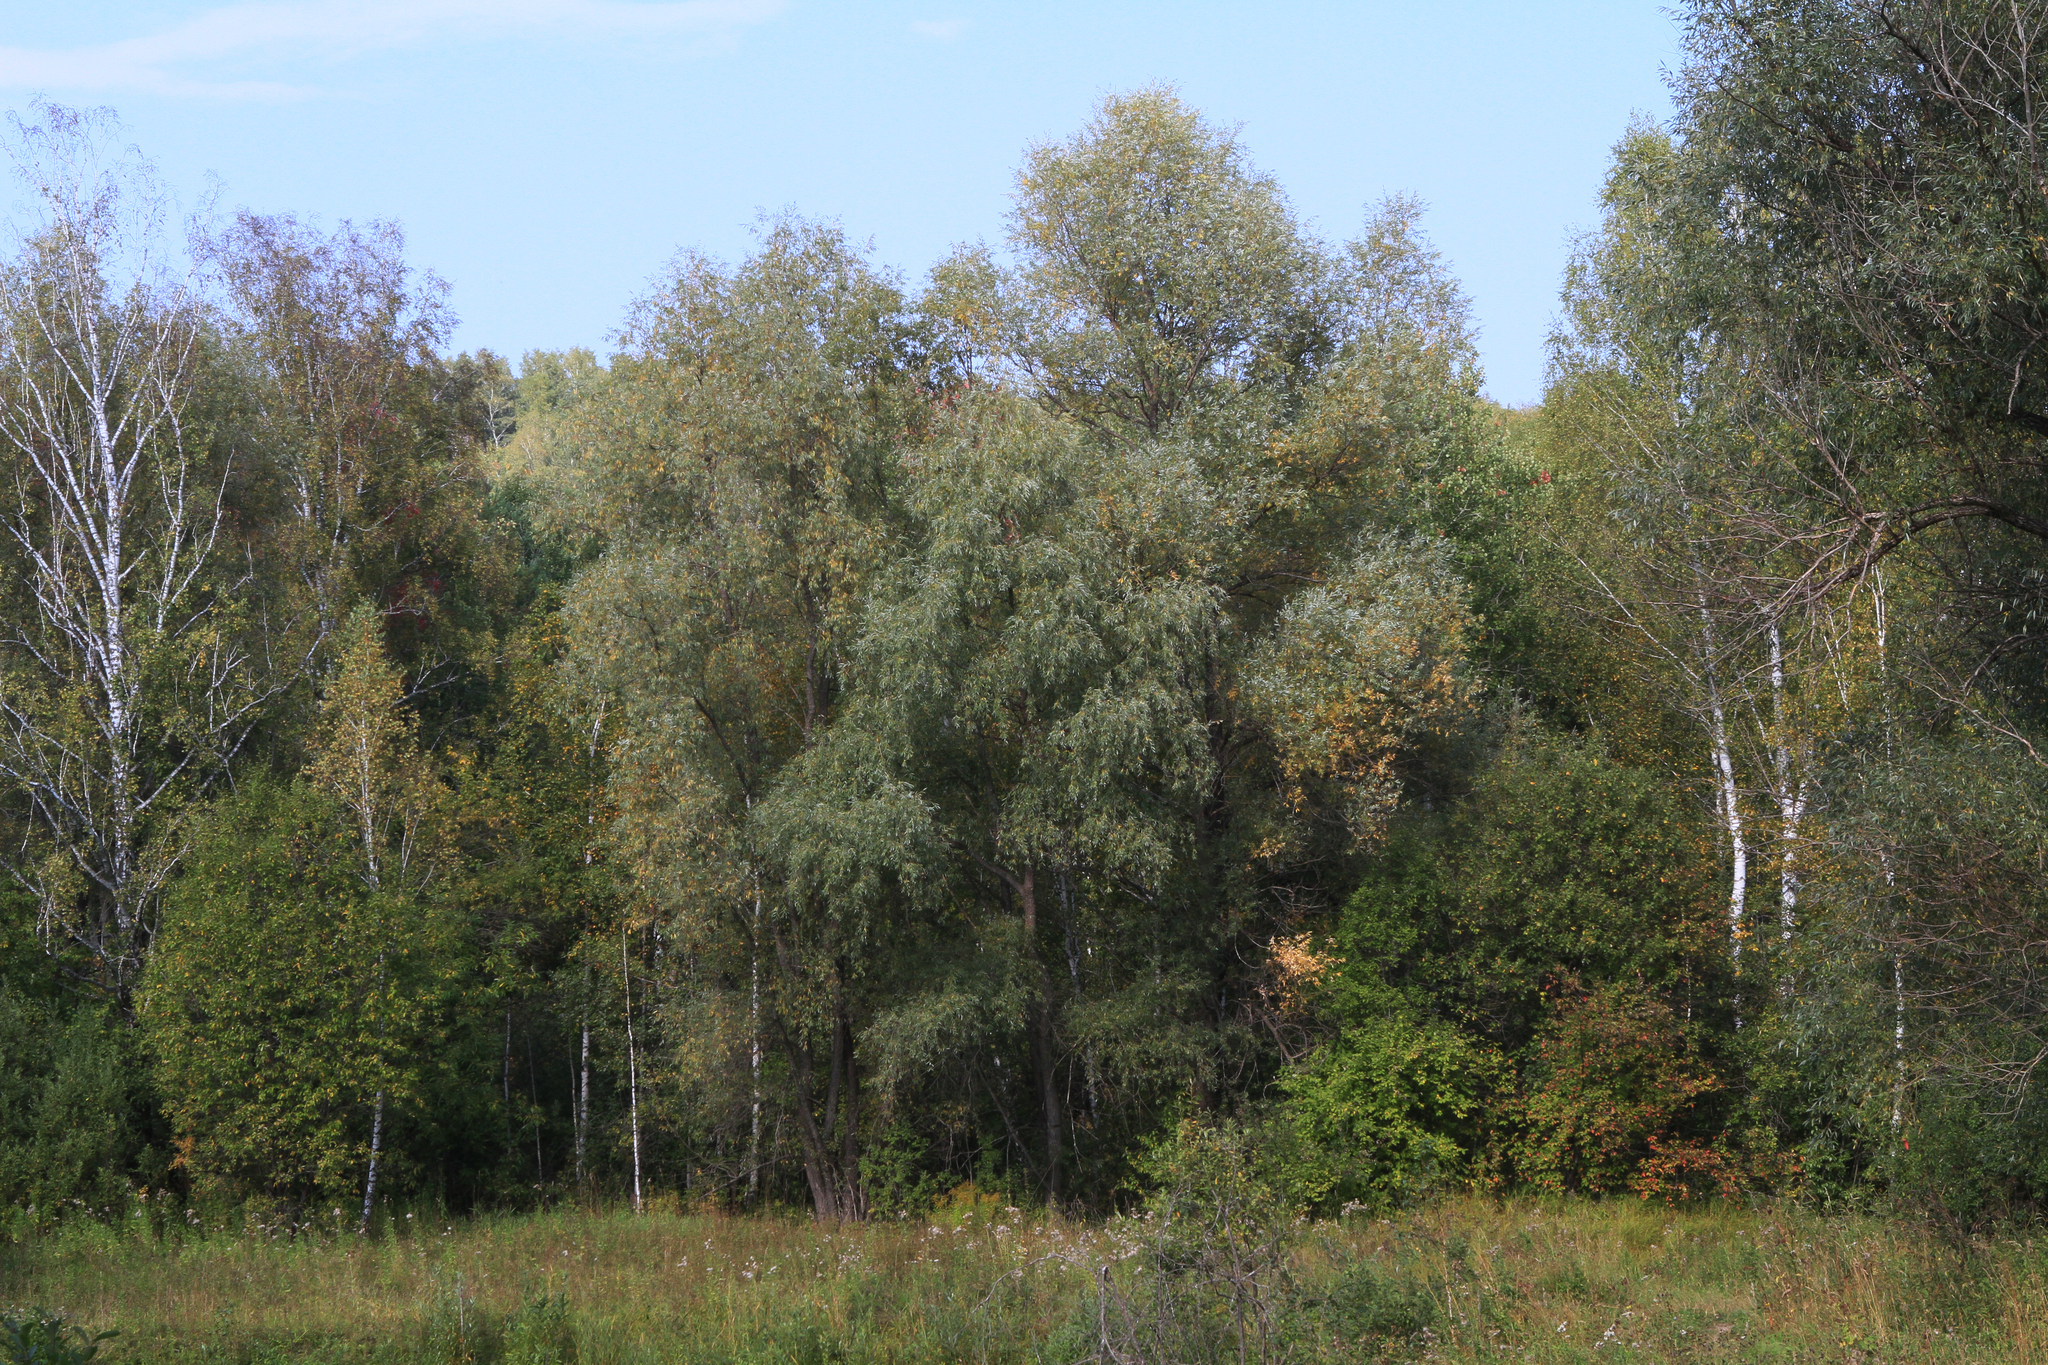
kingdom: Plantae
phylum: Tracheophyta
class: Magnoliopsida
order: Malpighiales
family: Salicaceae
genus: Salix
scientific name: Salix alba
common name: White willow
